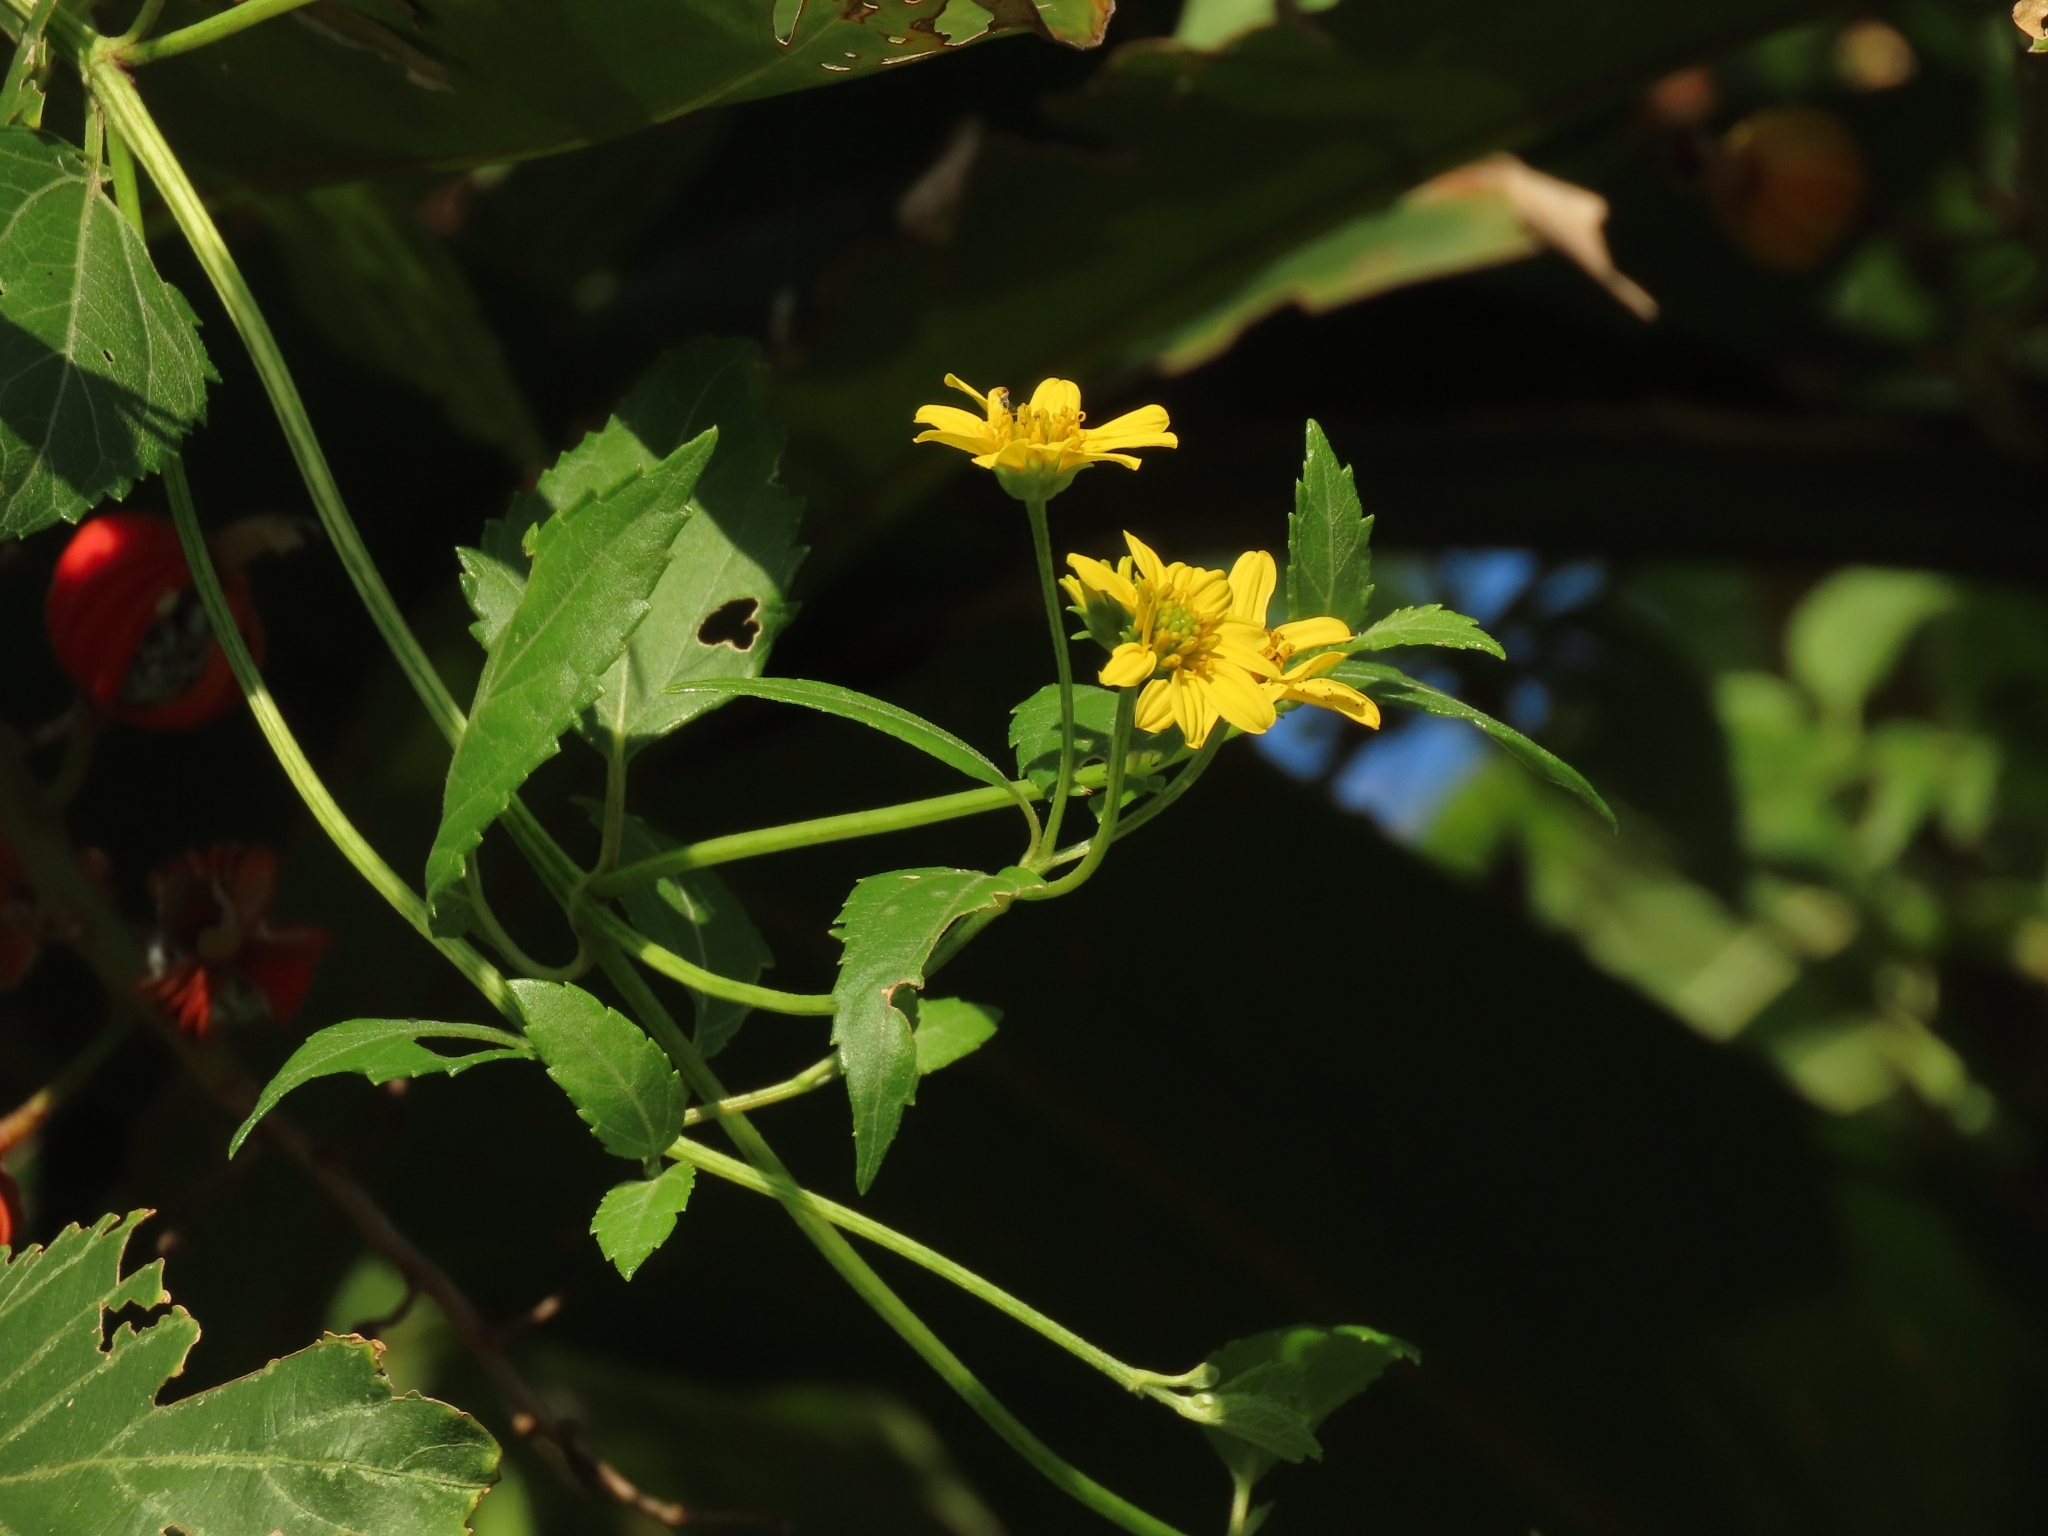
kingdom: Plantae
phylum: Tracheophyta
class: Magnoliopsida
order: Asterales
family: Asteraceae
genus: Wollastonia
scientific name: Wollastonia biflora
